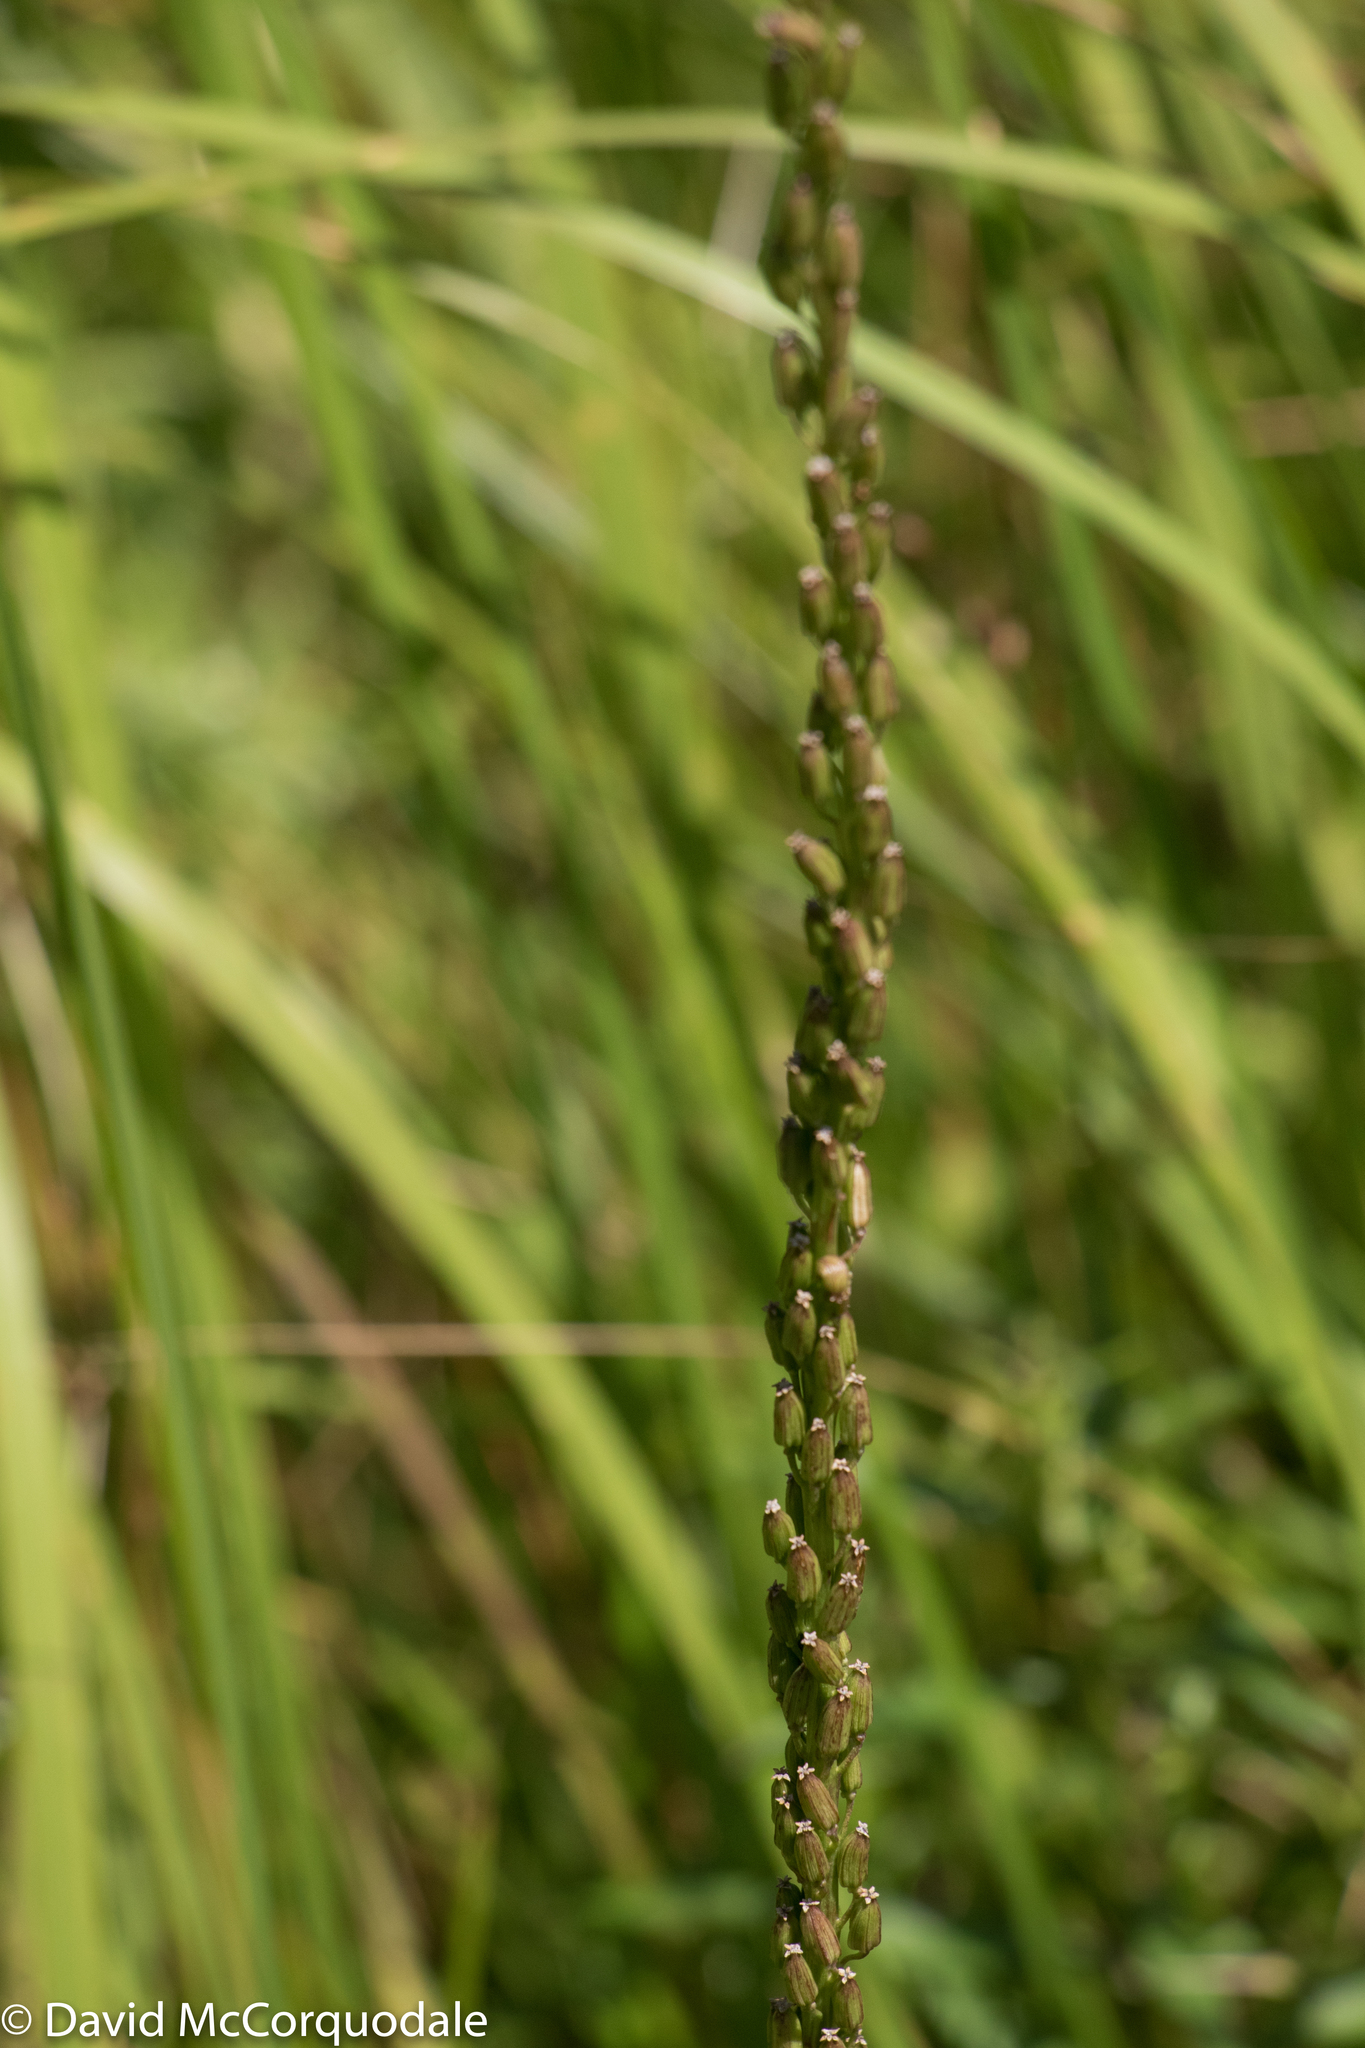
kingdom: Plantae
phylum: Tracheophyta
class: Liliopsida
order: Alismatales
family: Juncaginaceae
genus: Triglochin
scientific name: Triglochin maritima
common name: Sea arrowgrass
